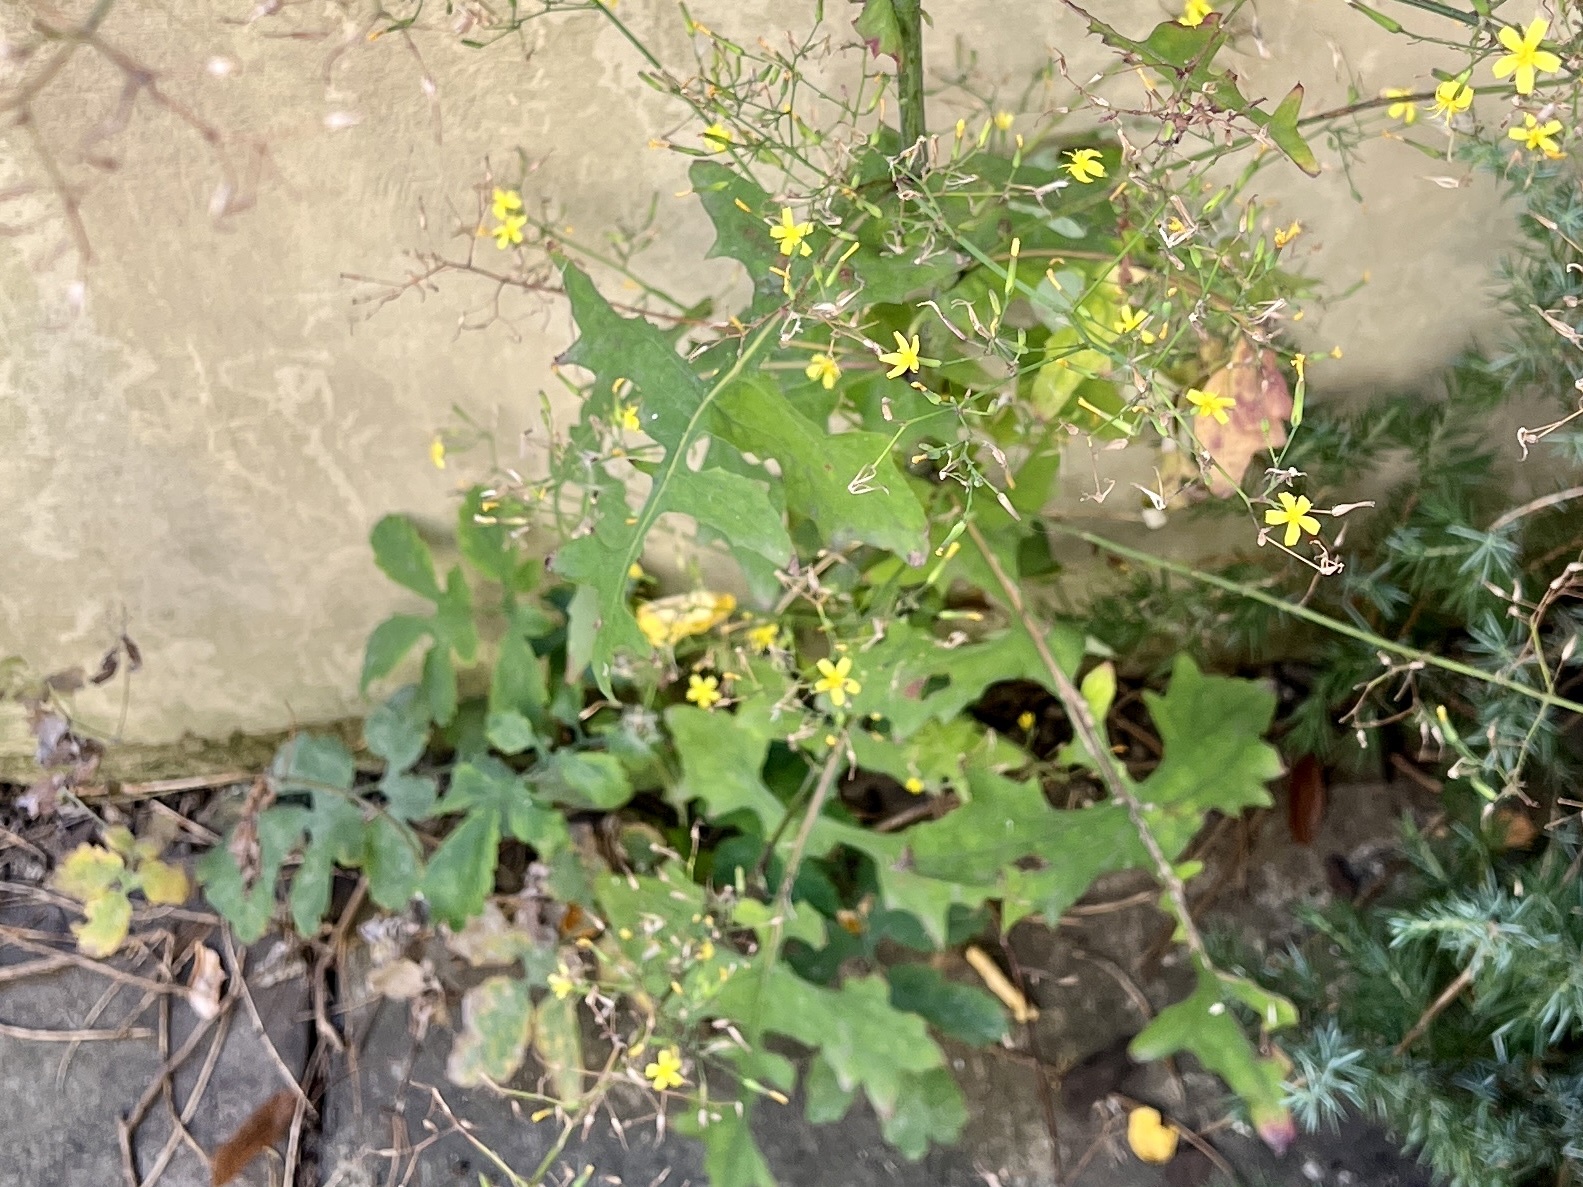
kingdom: Plantae
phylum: Tracheophyta
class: Magnoliopsida
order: Asterales
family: Asteraceae
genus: Mycelis
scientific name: Mycelis muralis
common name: Wall lettuce
